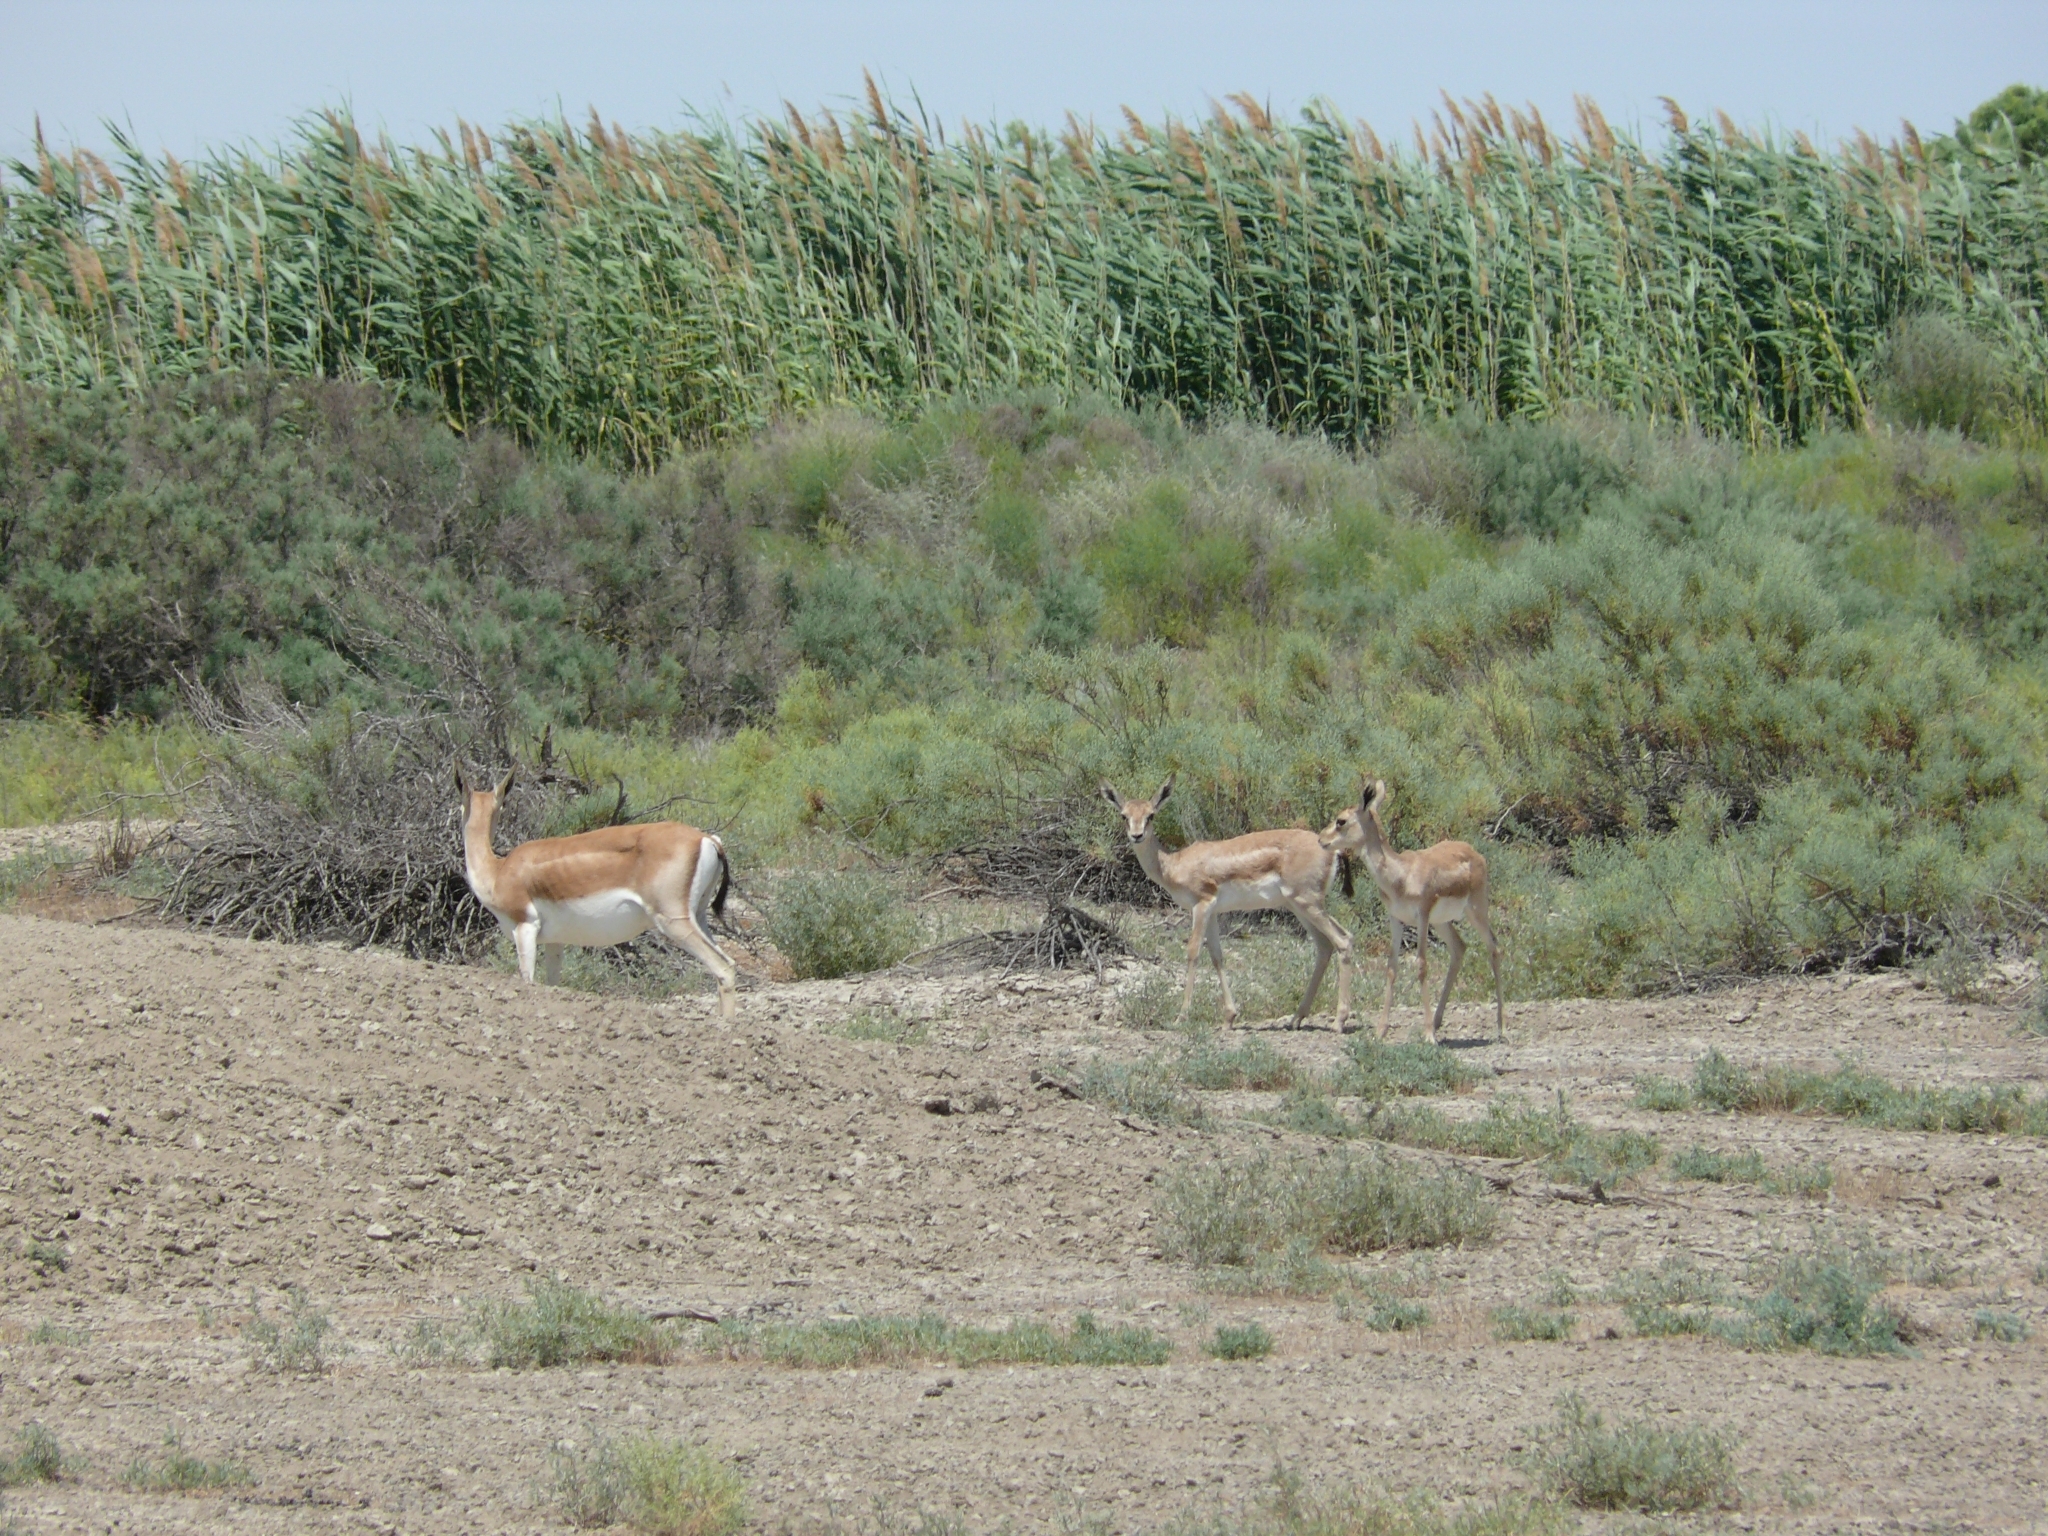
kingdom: Animalia
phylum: Chordata
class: Mammalia
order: Artiodactyla
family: Bovidae
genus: Gazella
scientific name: Gazella subgutturosa
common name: Goitered gazelle
